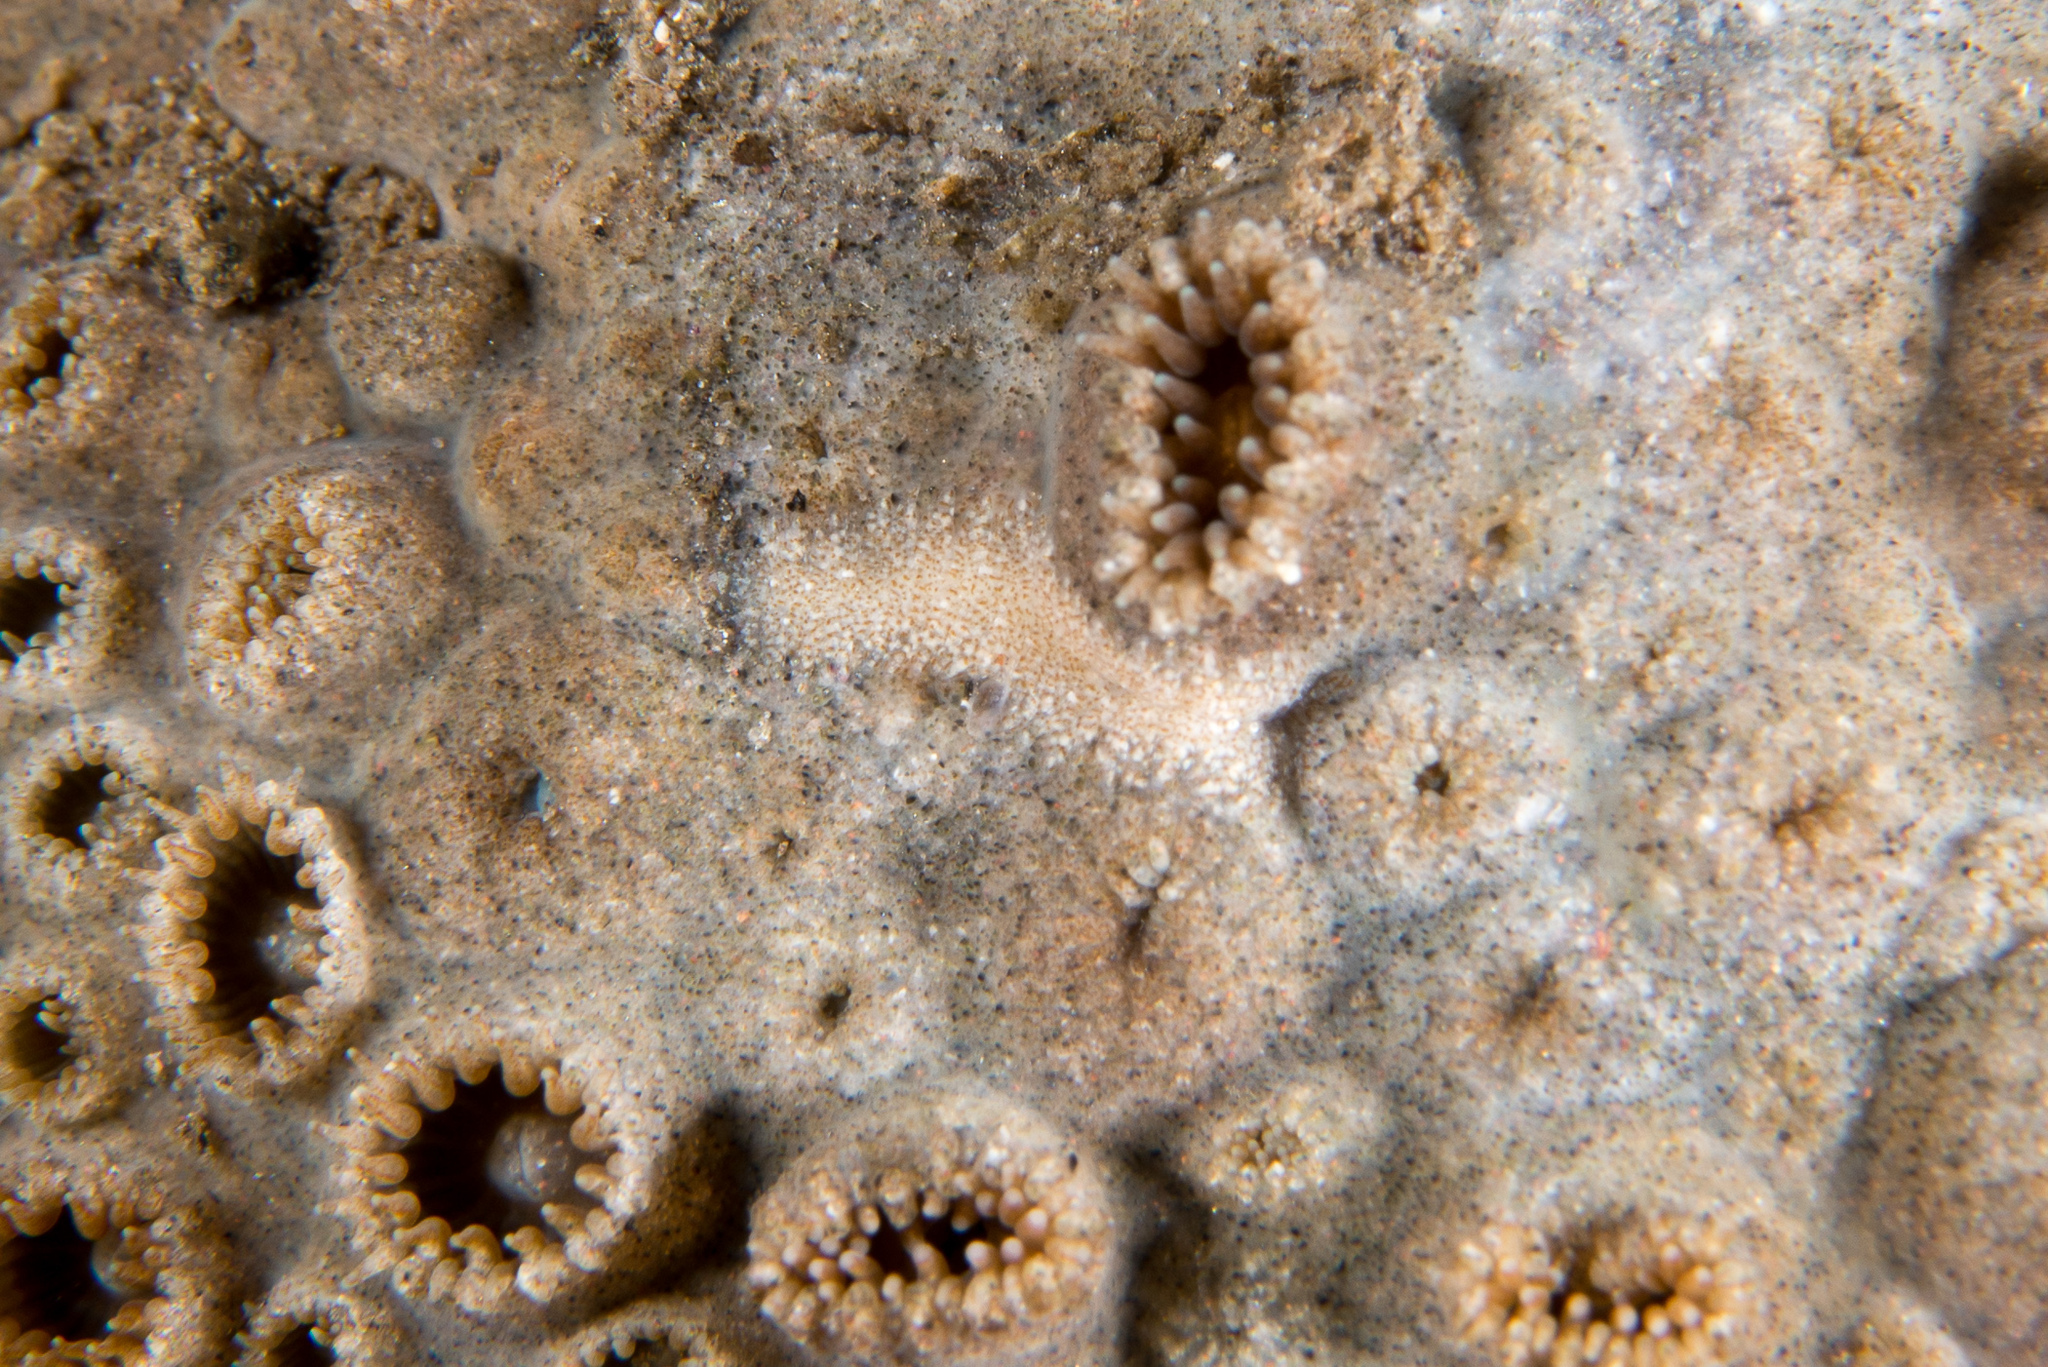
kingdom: Animalia
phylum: Mollusca
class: Gastropoda
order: Nudibranchia
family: Aeolidiidae
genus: Aeolidiopsis
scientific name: Aeolidiopsis ransoni
